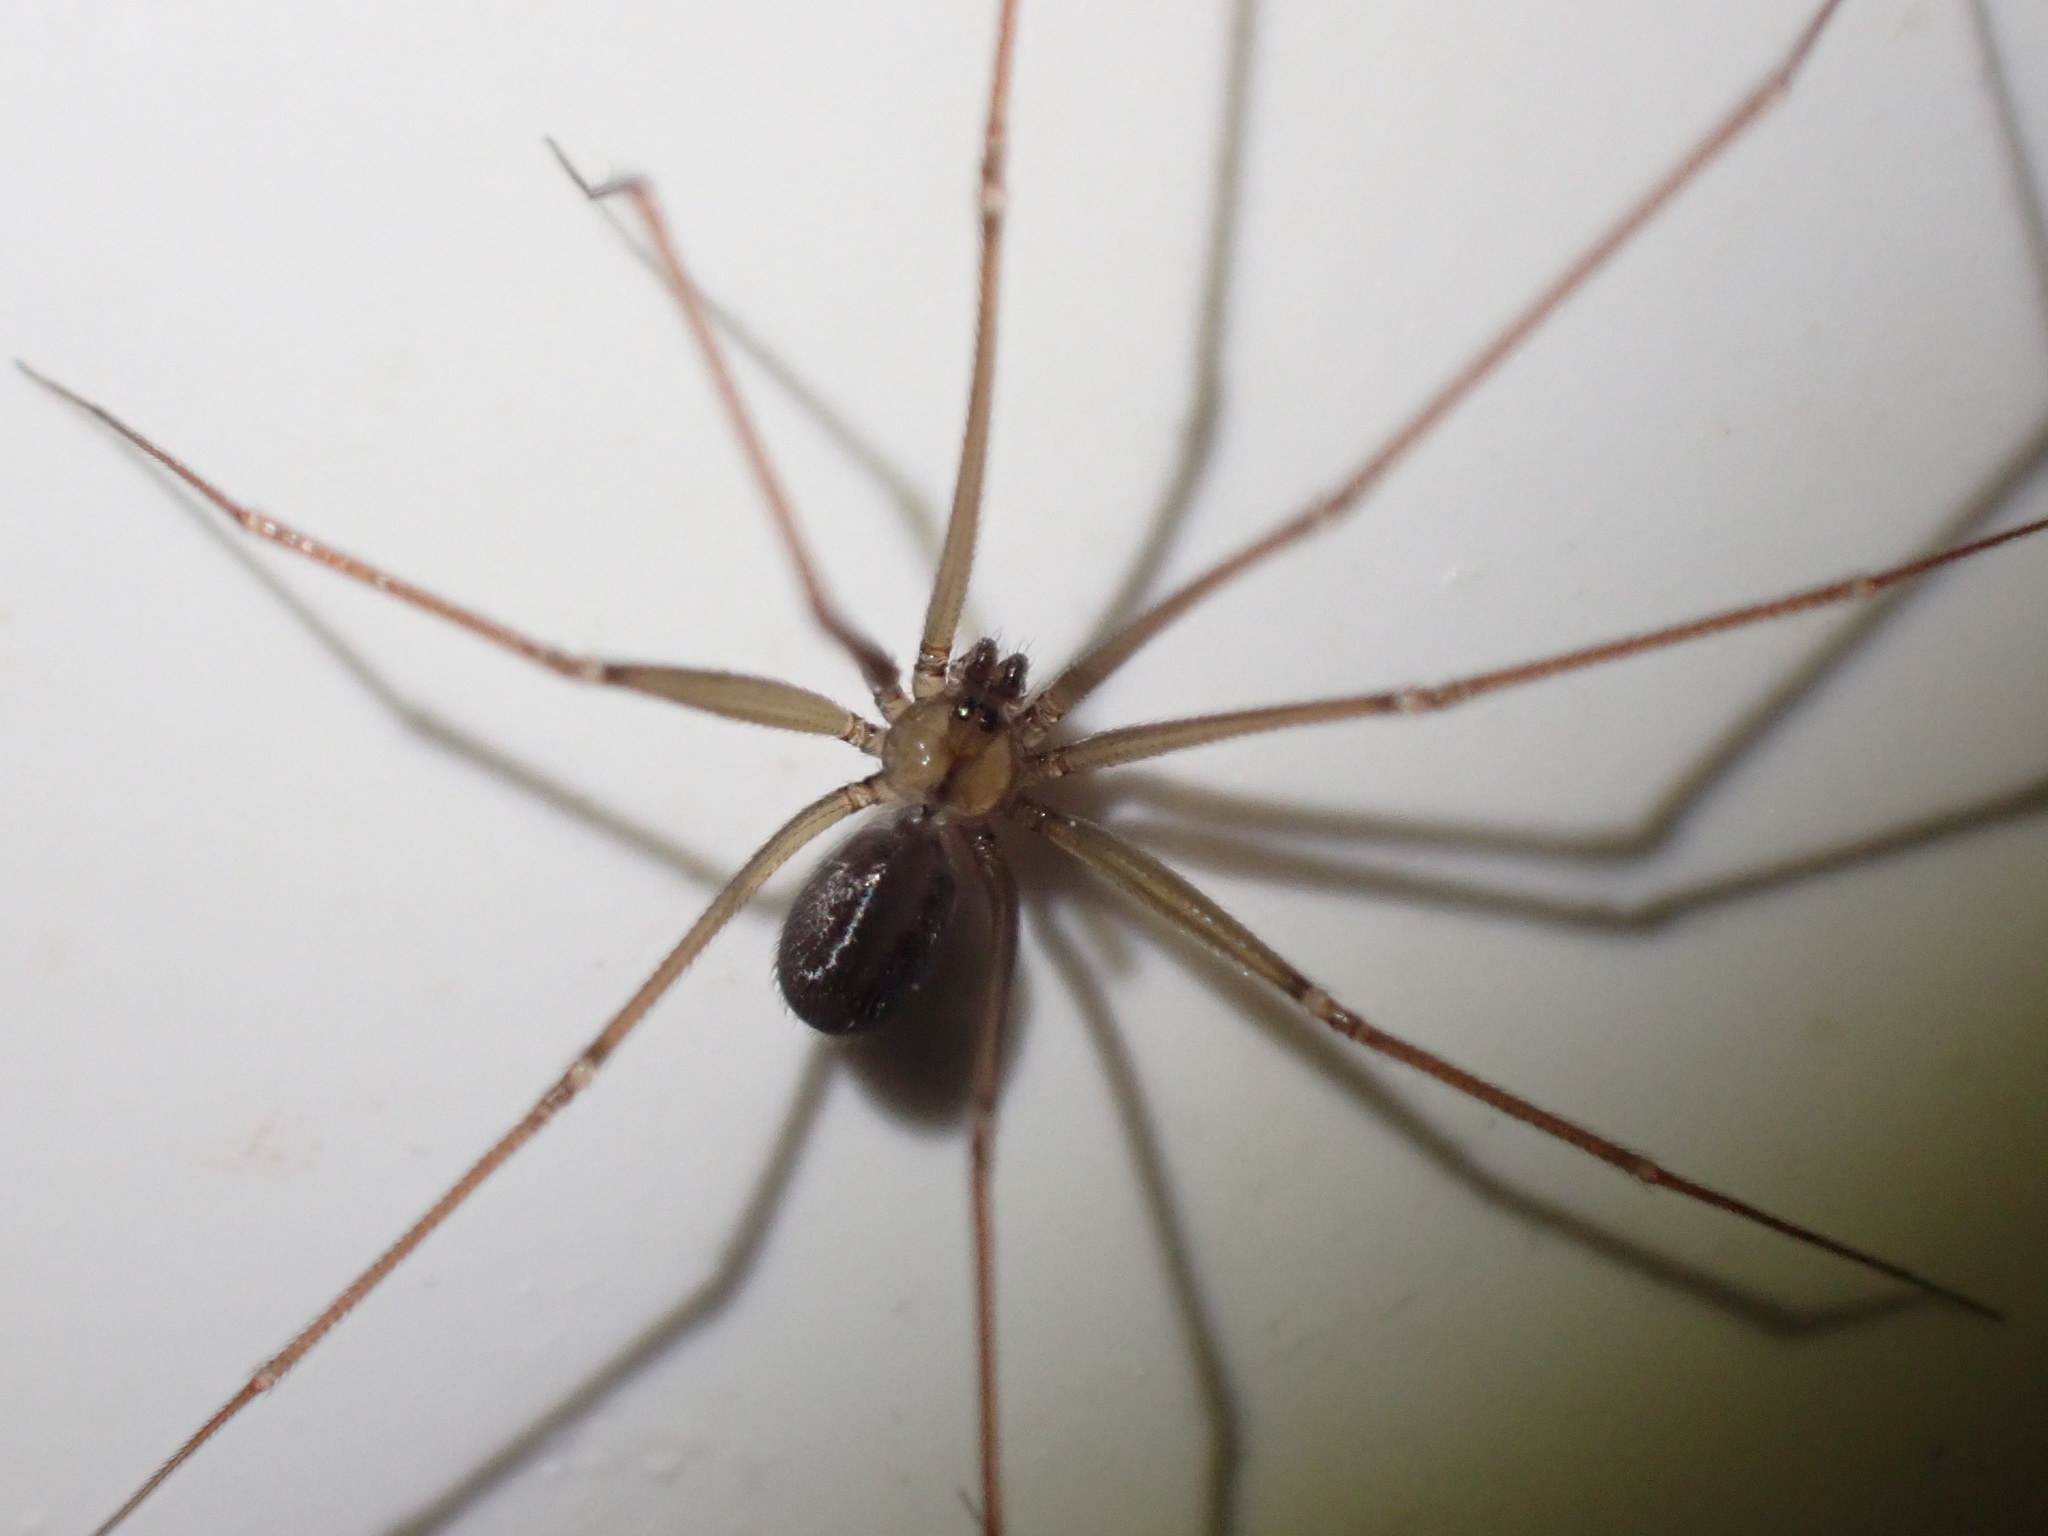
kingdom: Animalia
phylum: Arthropoda
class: Arachnida
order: Araneae
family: Pholcidae
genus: Psilochorus
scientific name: Psilochorus simoni
